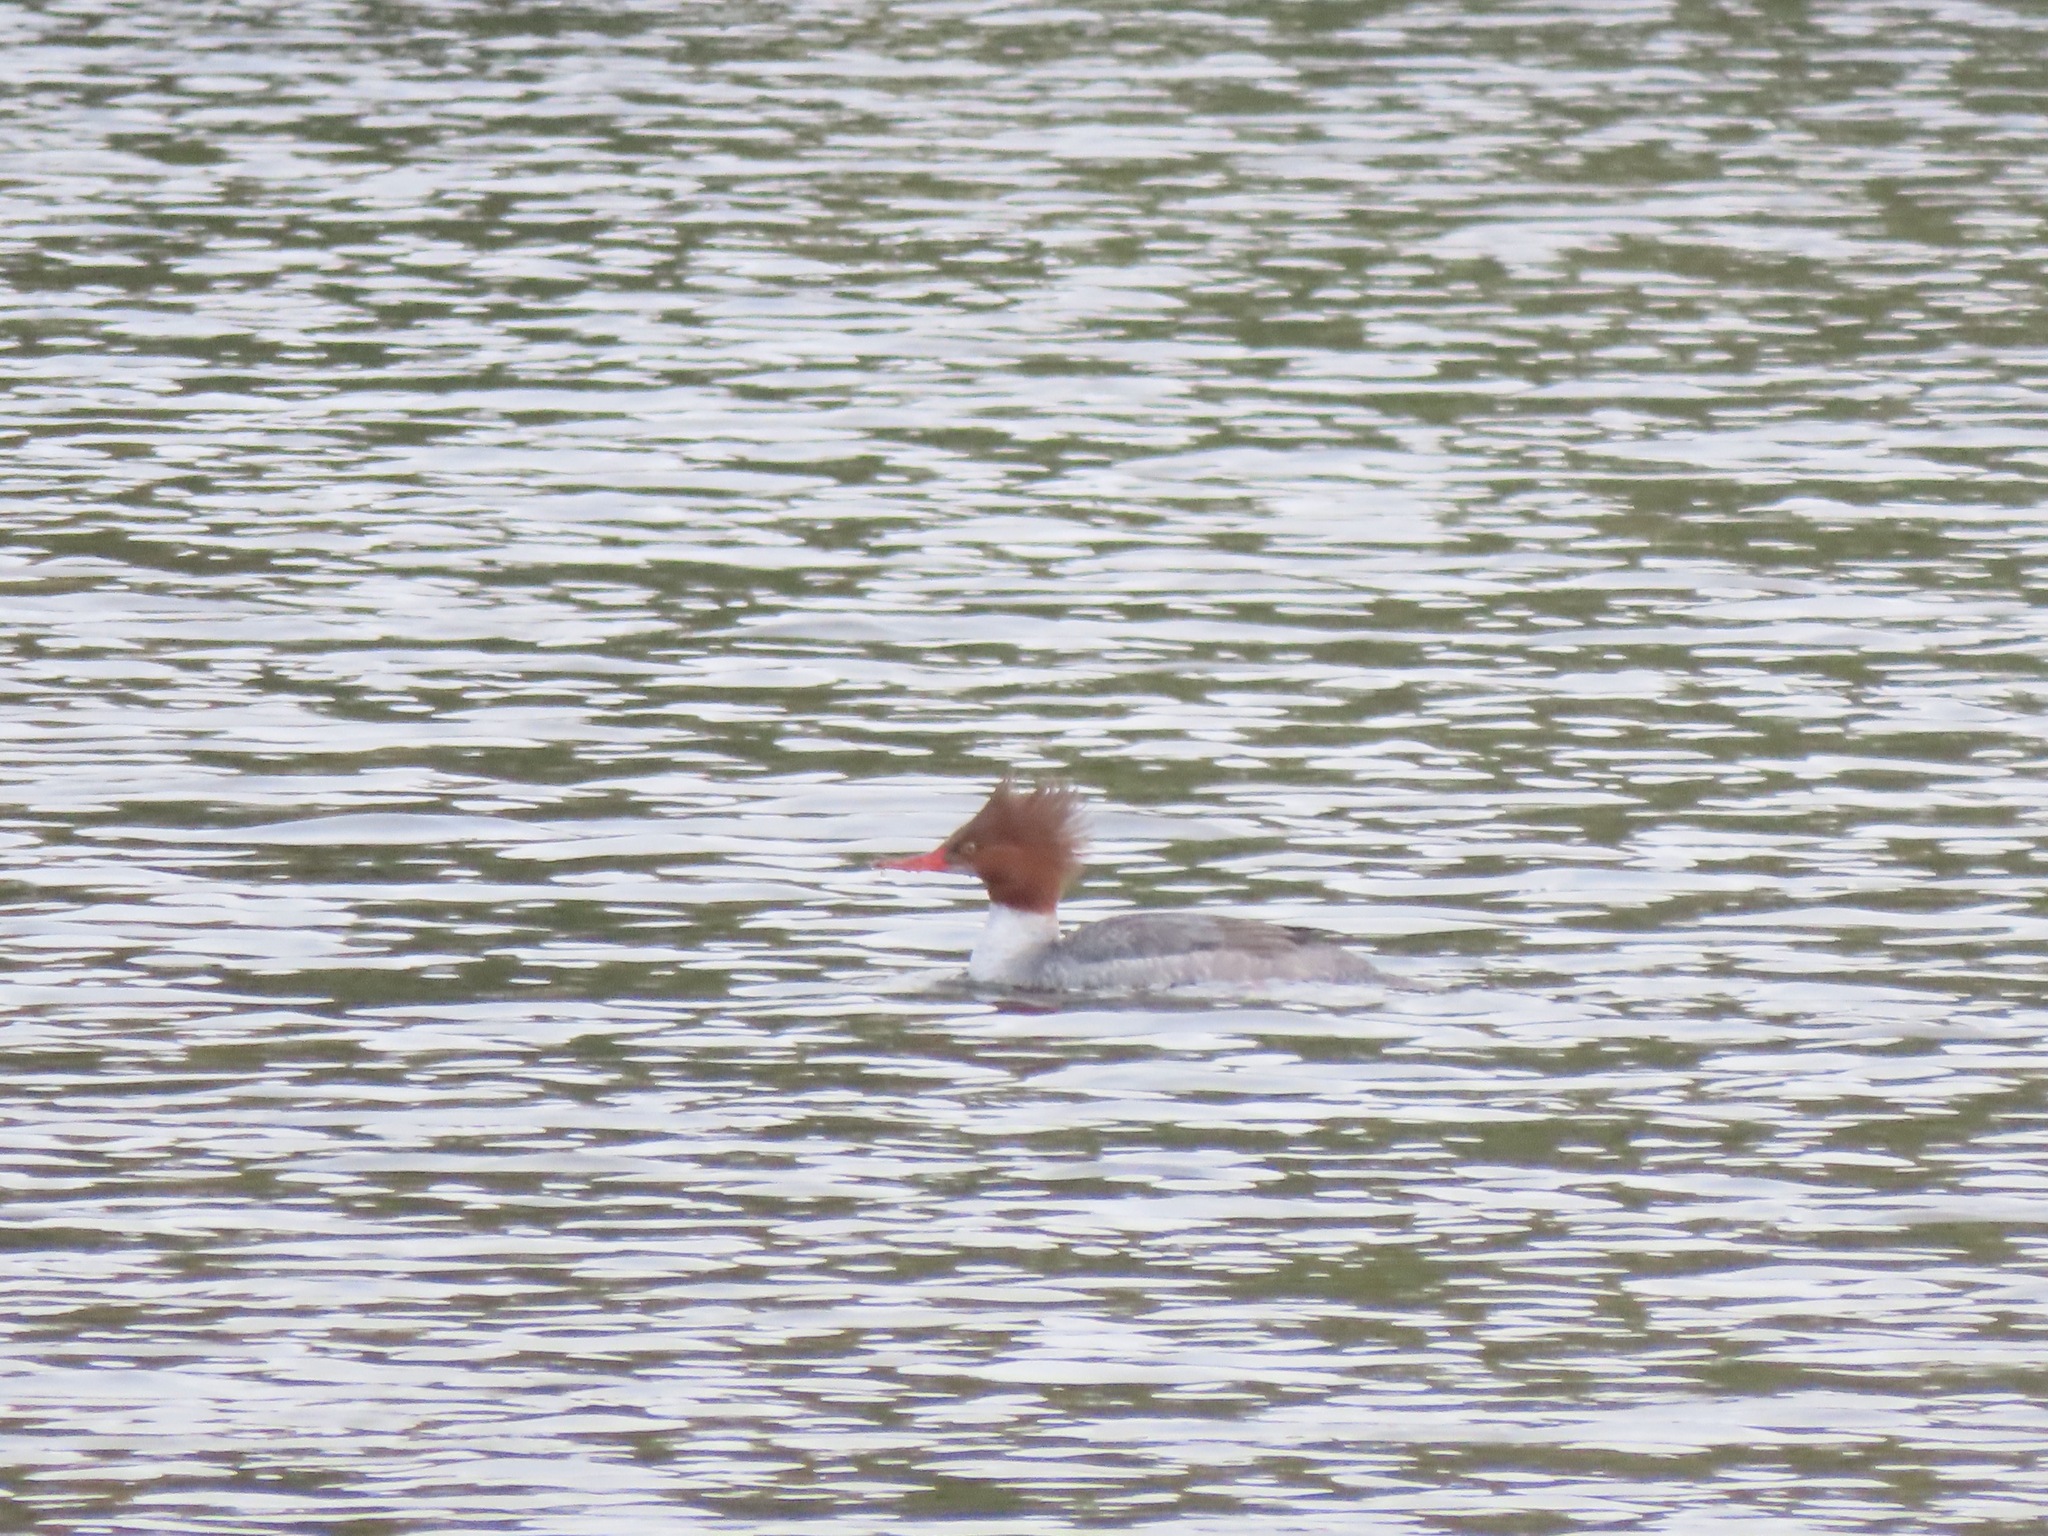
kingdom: Animalia
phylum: Chordata
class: Aves
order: Anseriformes
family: Anatidae
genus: Mergus
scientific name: Mergus merganser
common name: Common merganser
